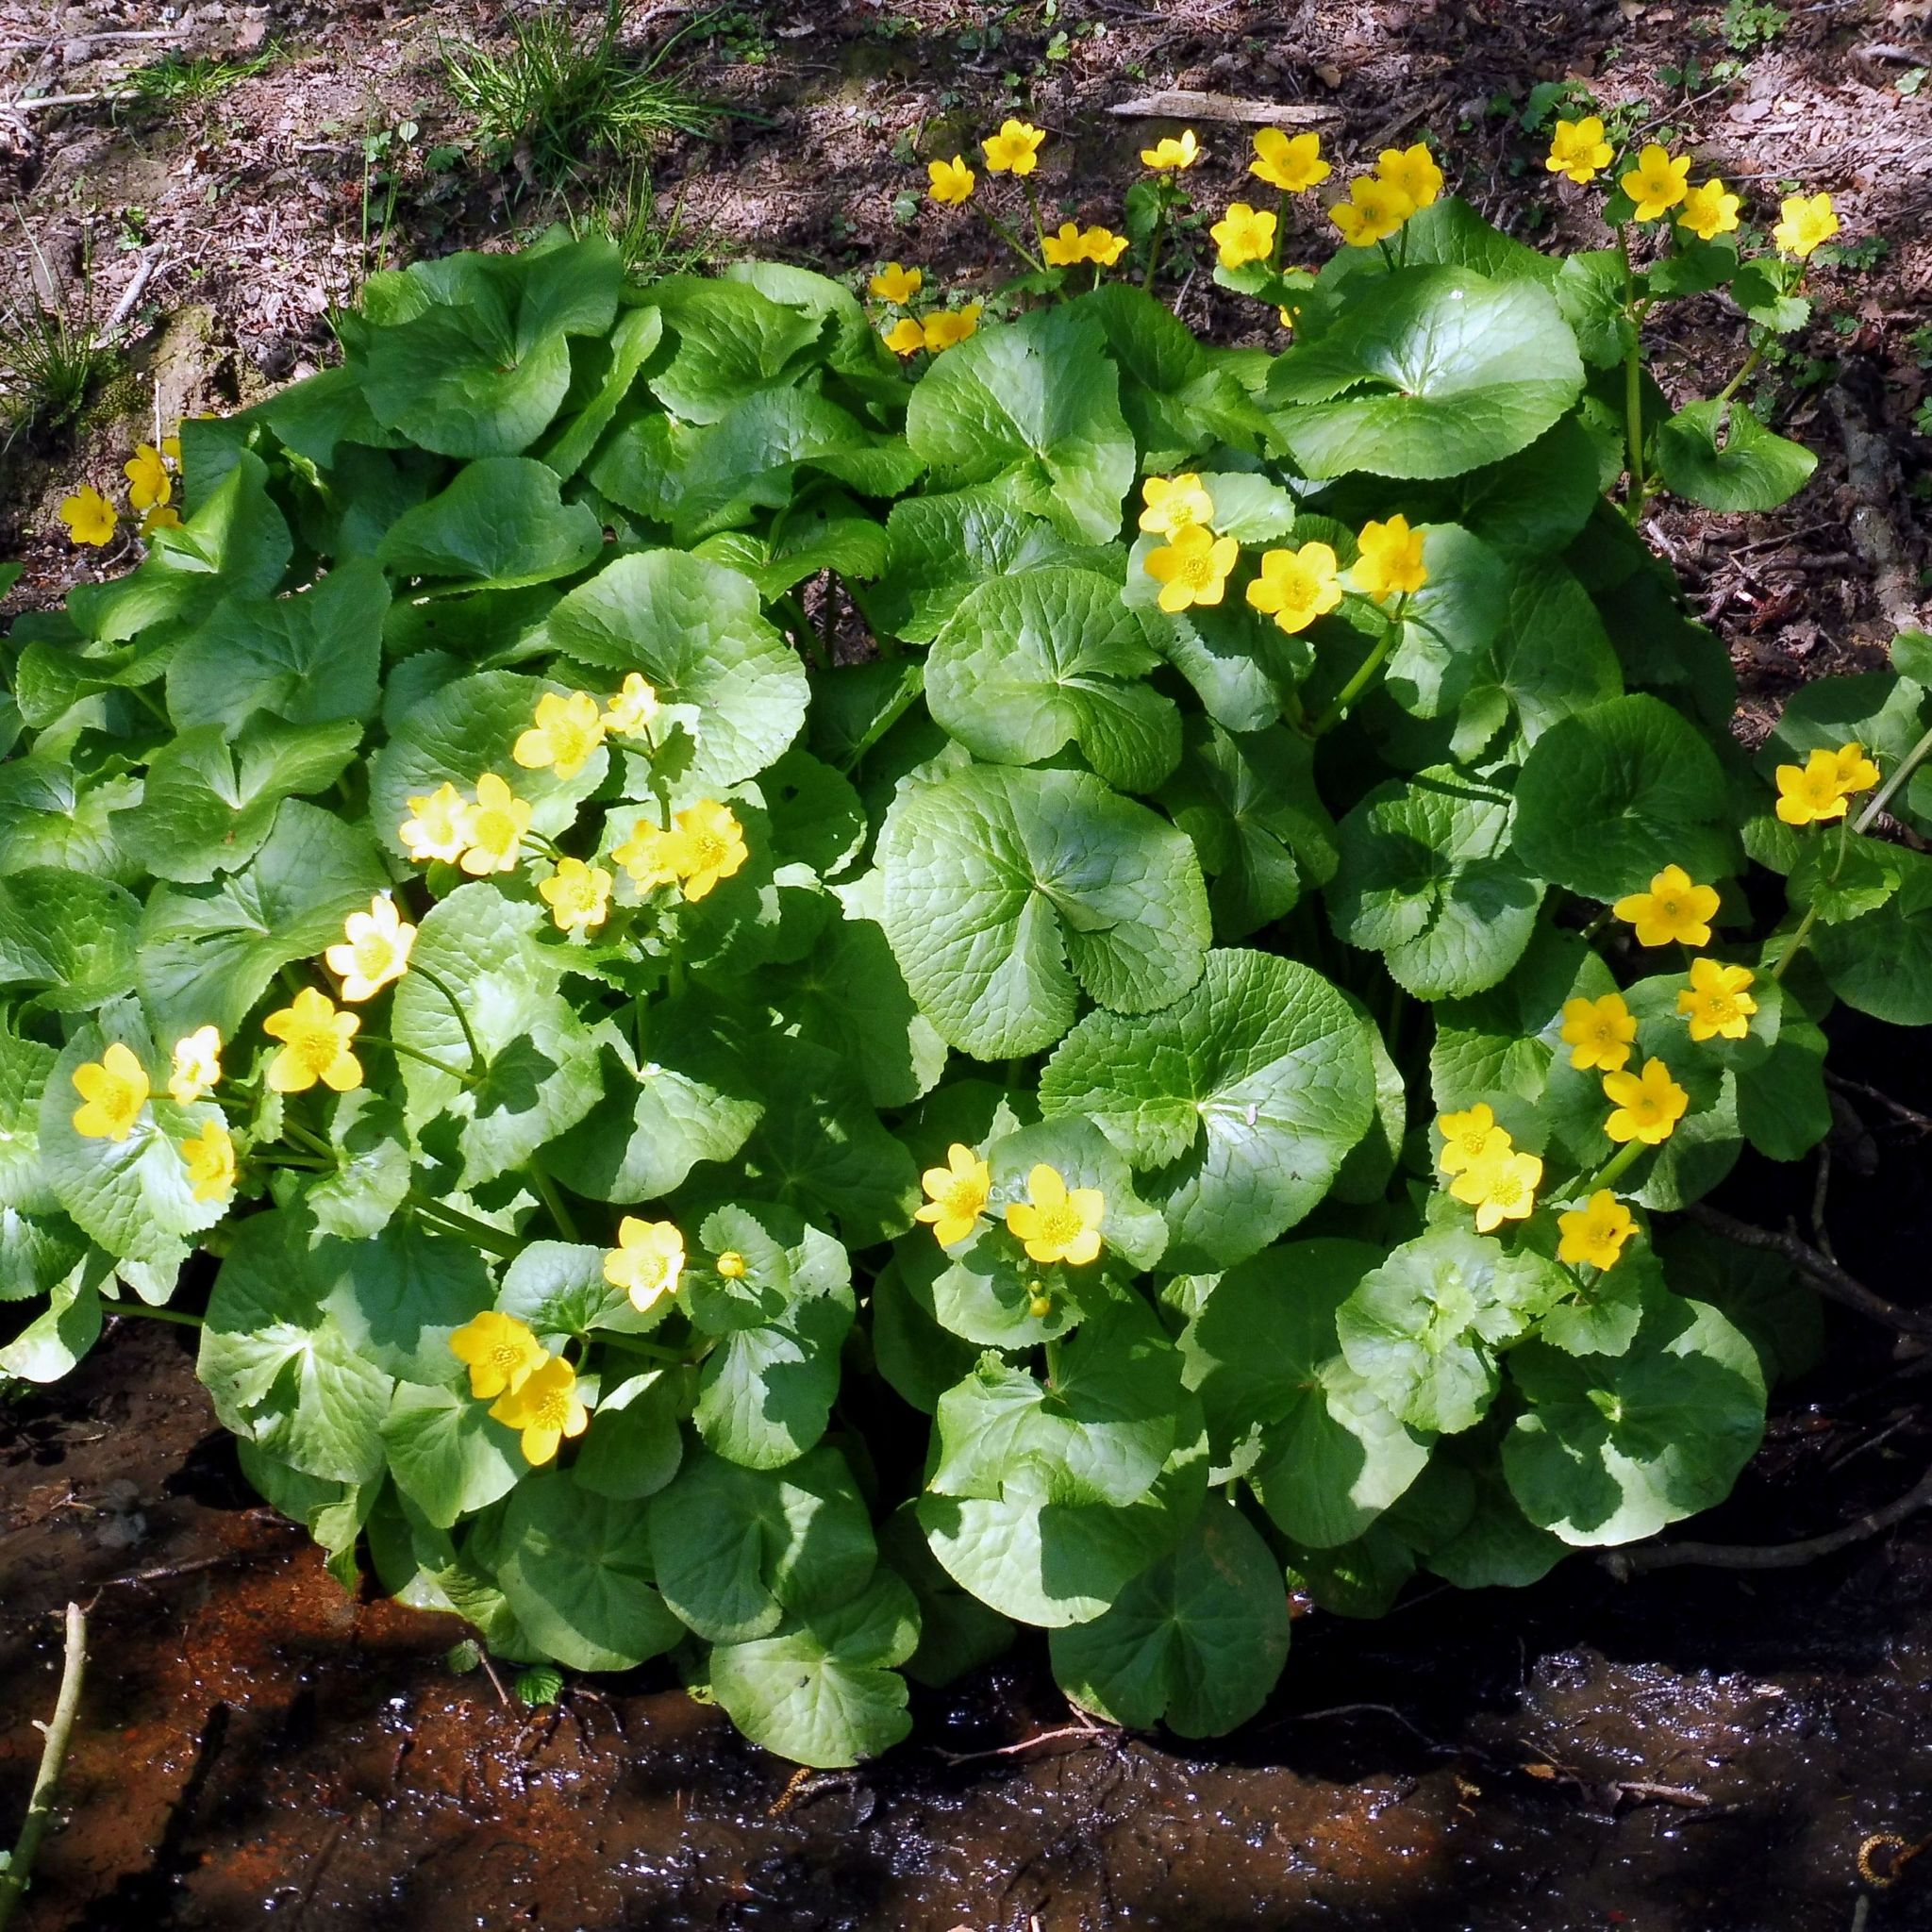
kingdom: Plantae
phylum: Tracheophyta
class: Magnoliopsida
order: Ranunculales
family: Ranunculaceae
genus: Caltha
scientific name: Caltha palustris
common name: Marsh marigold
